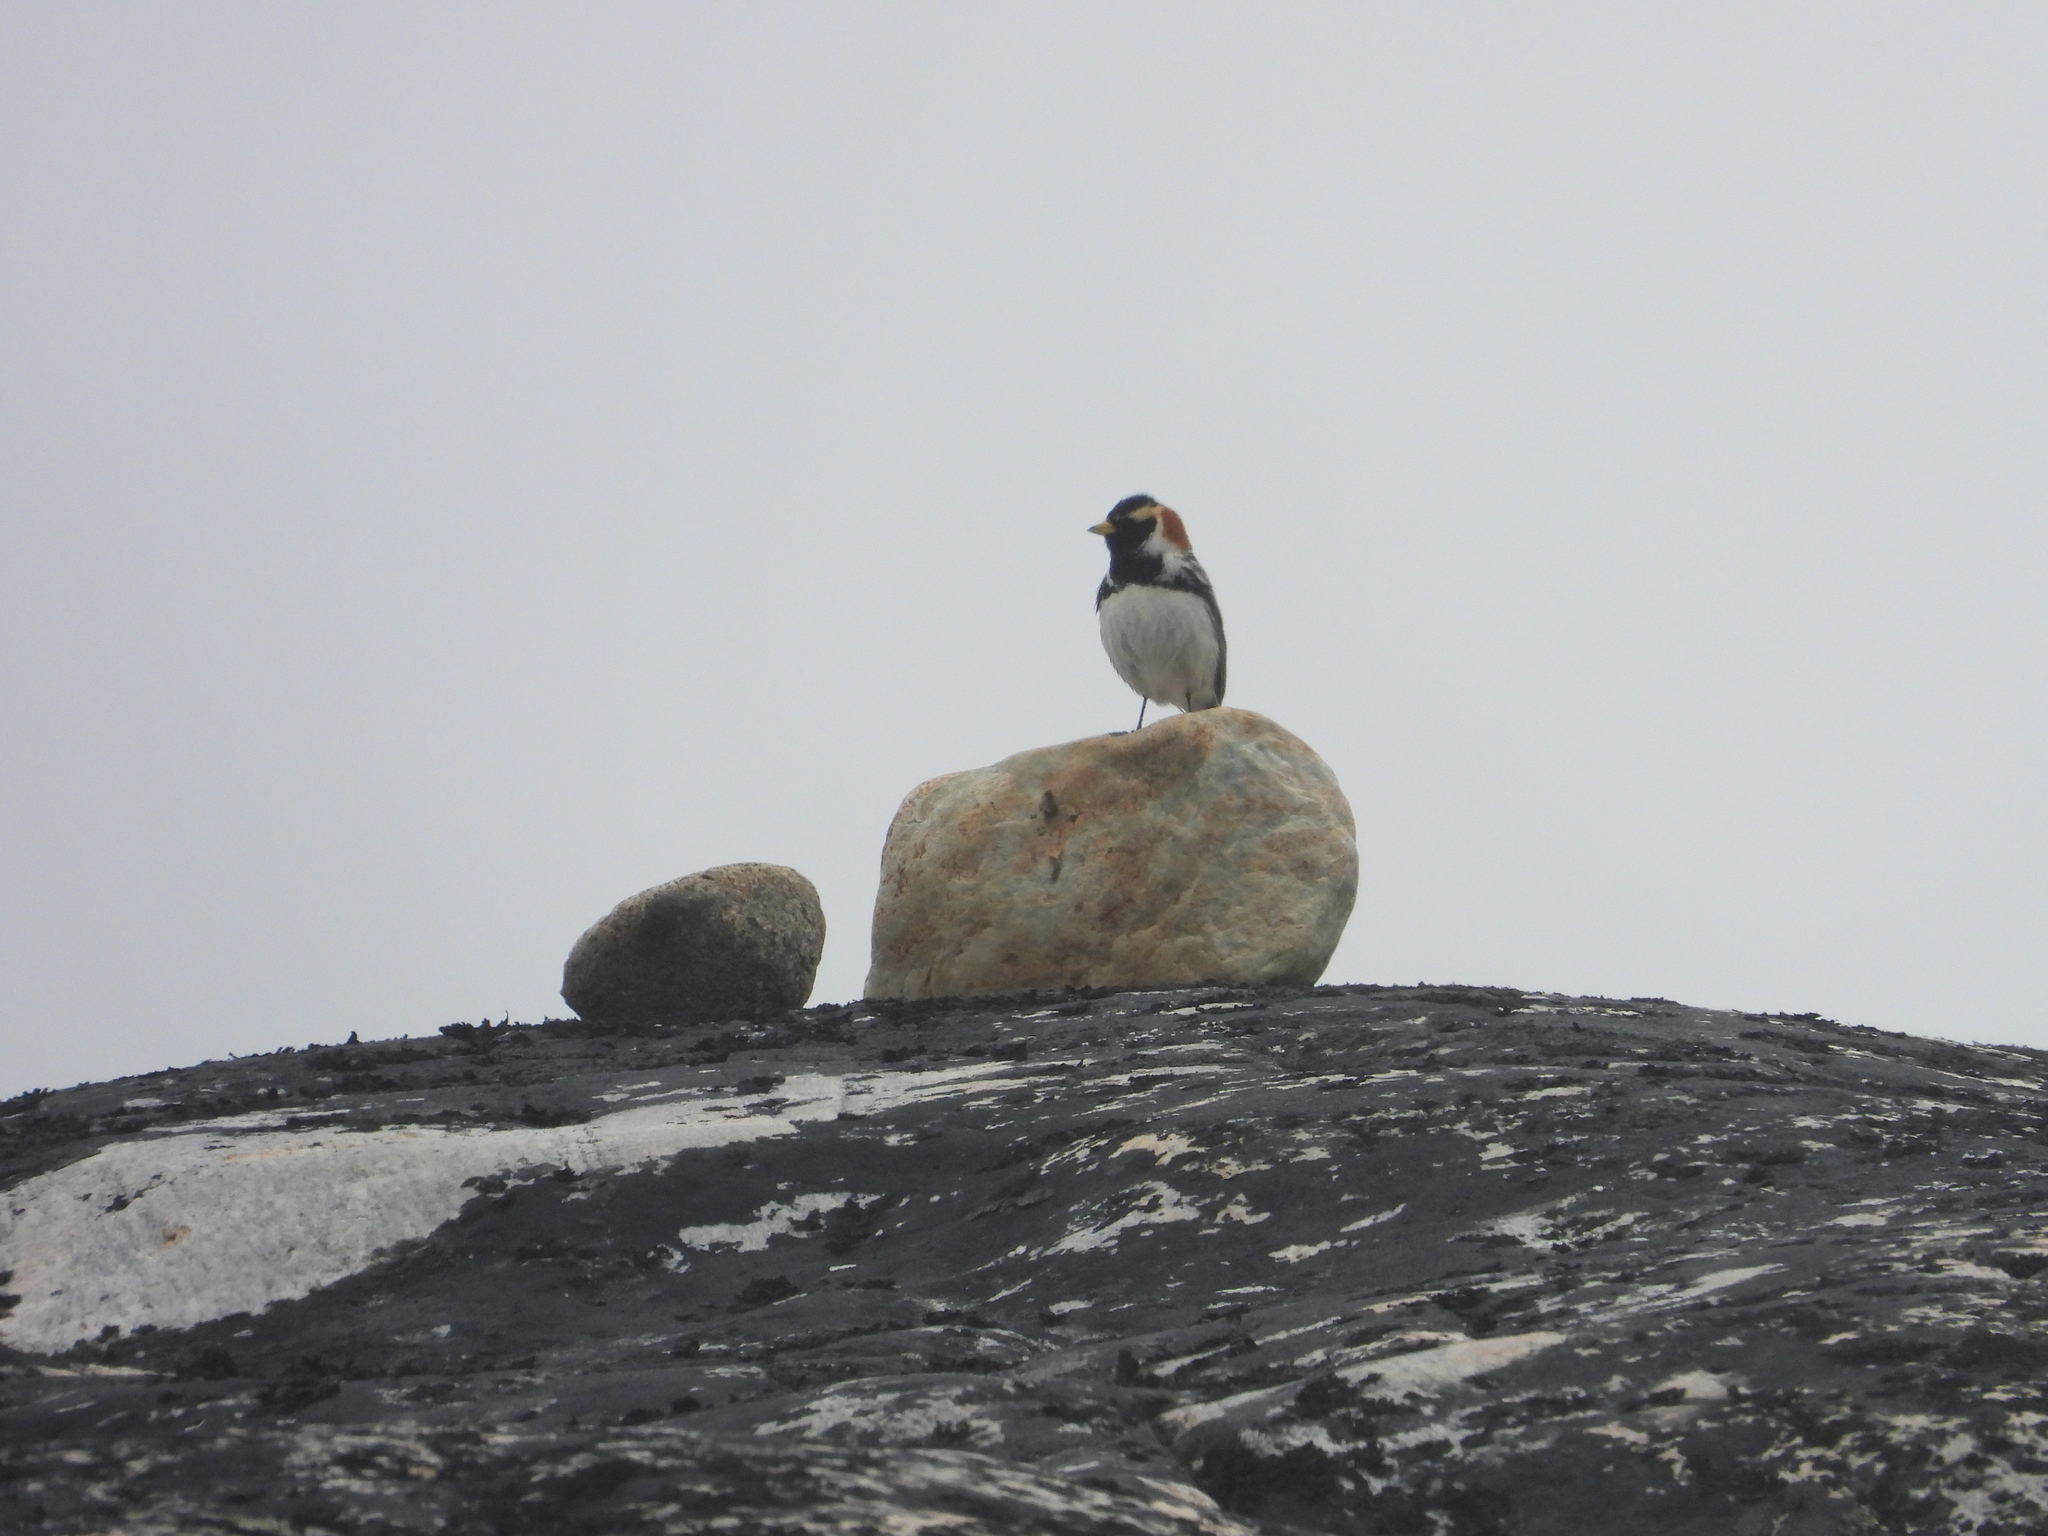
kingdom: Animalia
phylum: Chordata
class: Aves
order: Passeriformes
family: Calcariidae
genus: Calcarius
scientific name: Calcarius lapponicus
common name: Lapland longspur
